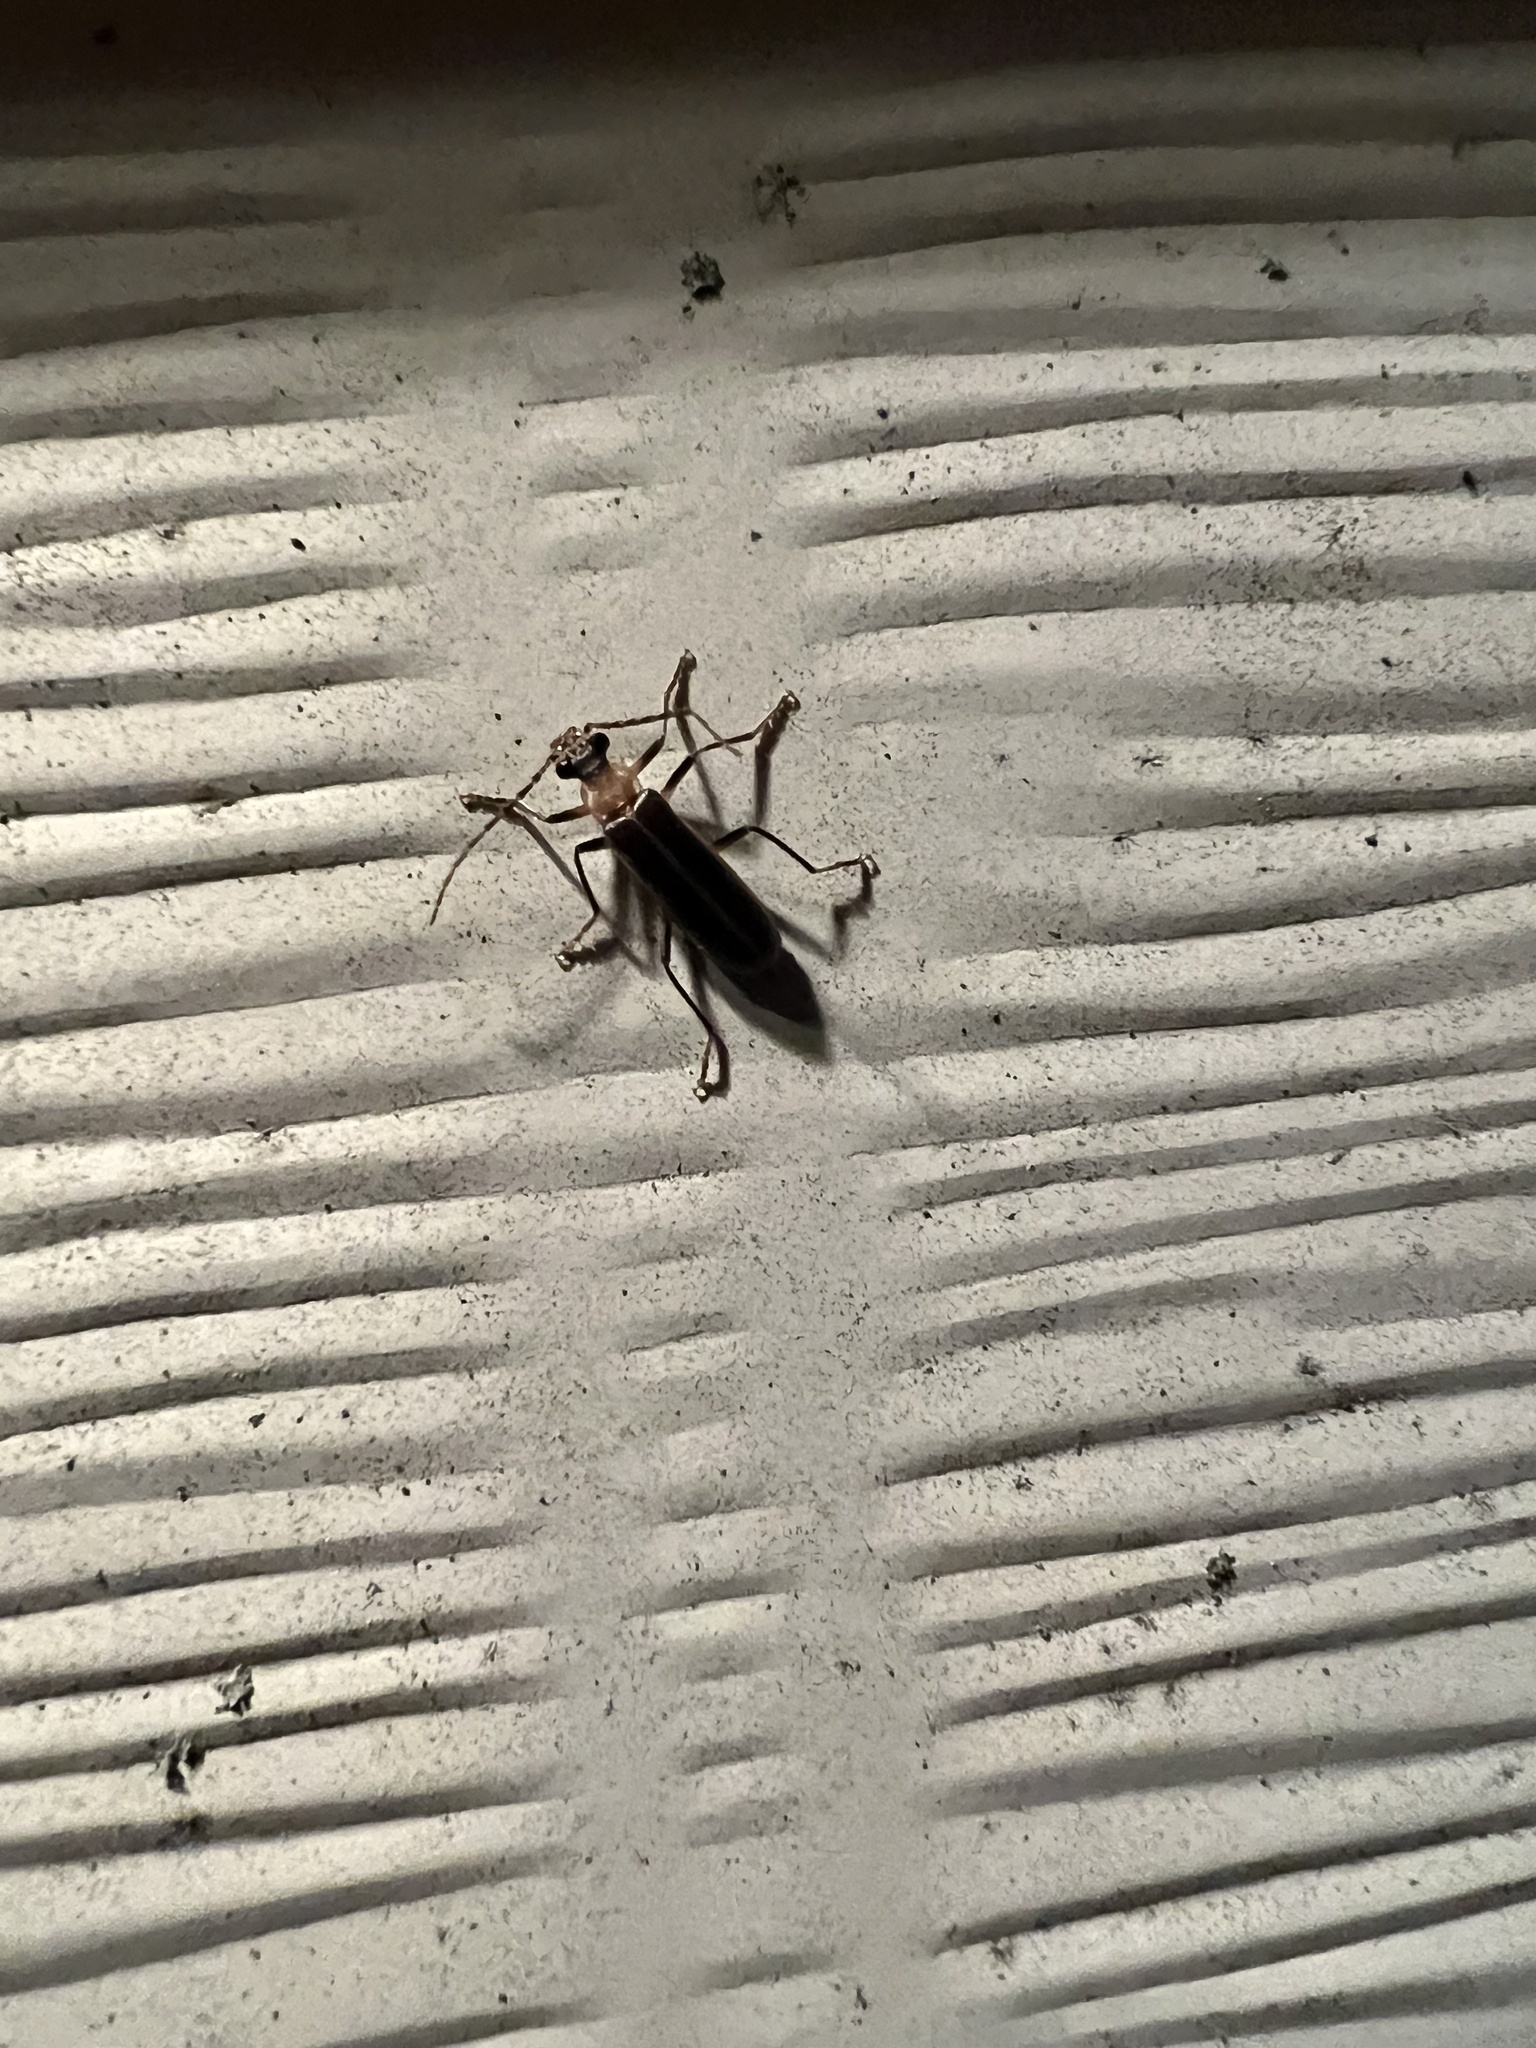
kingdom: Animalia
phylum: Arthropoda
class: Insecta
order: Coleoptera
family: Cantharidae
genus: Podabrus
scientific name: Podabrus flavicollis
